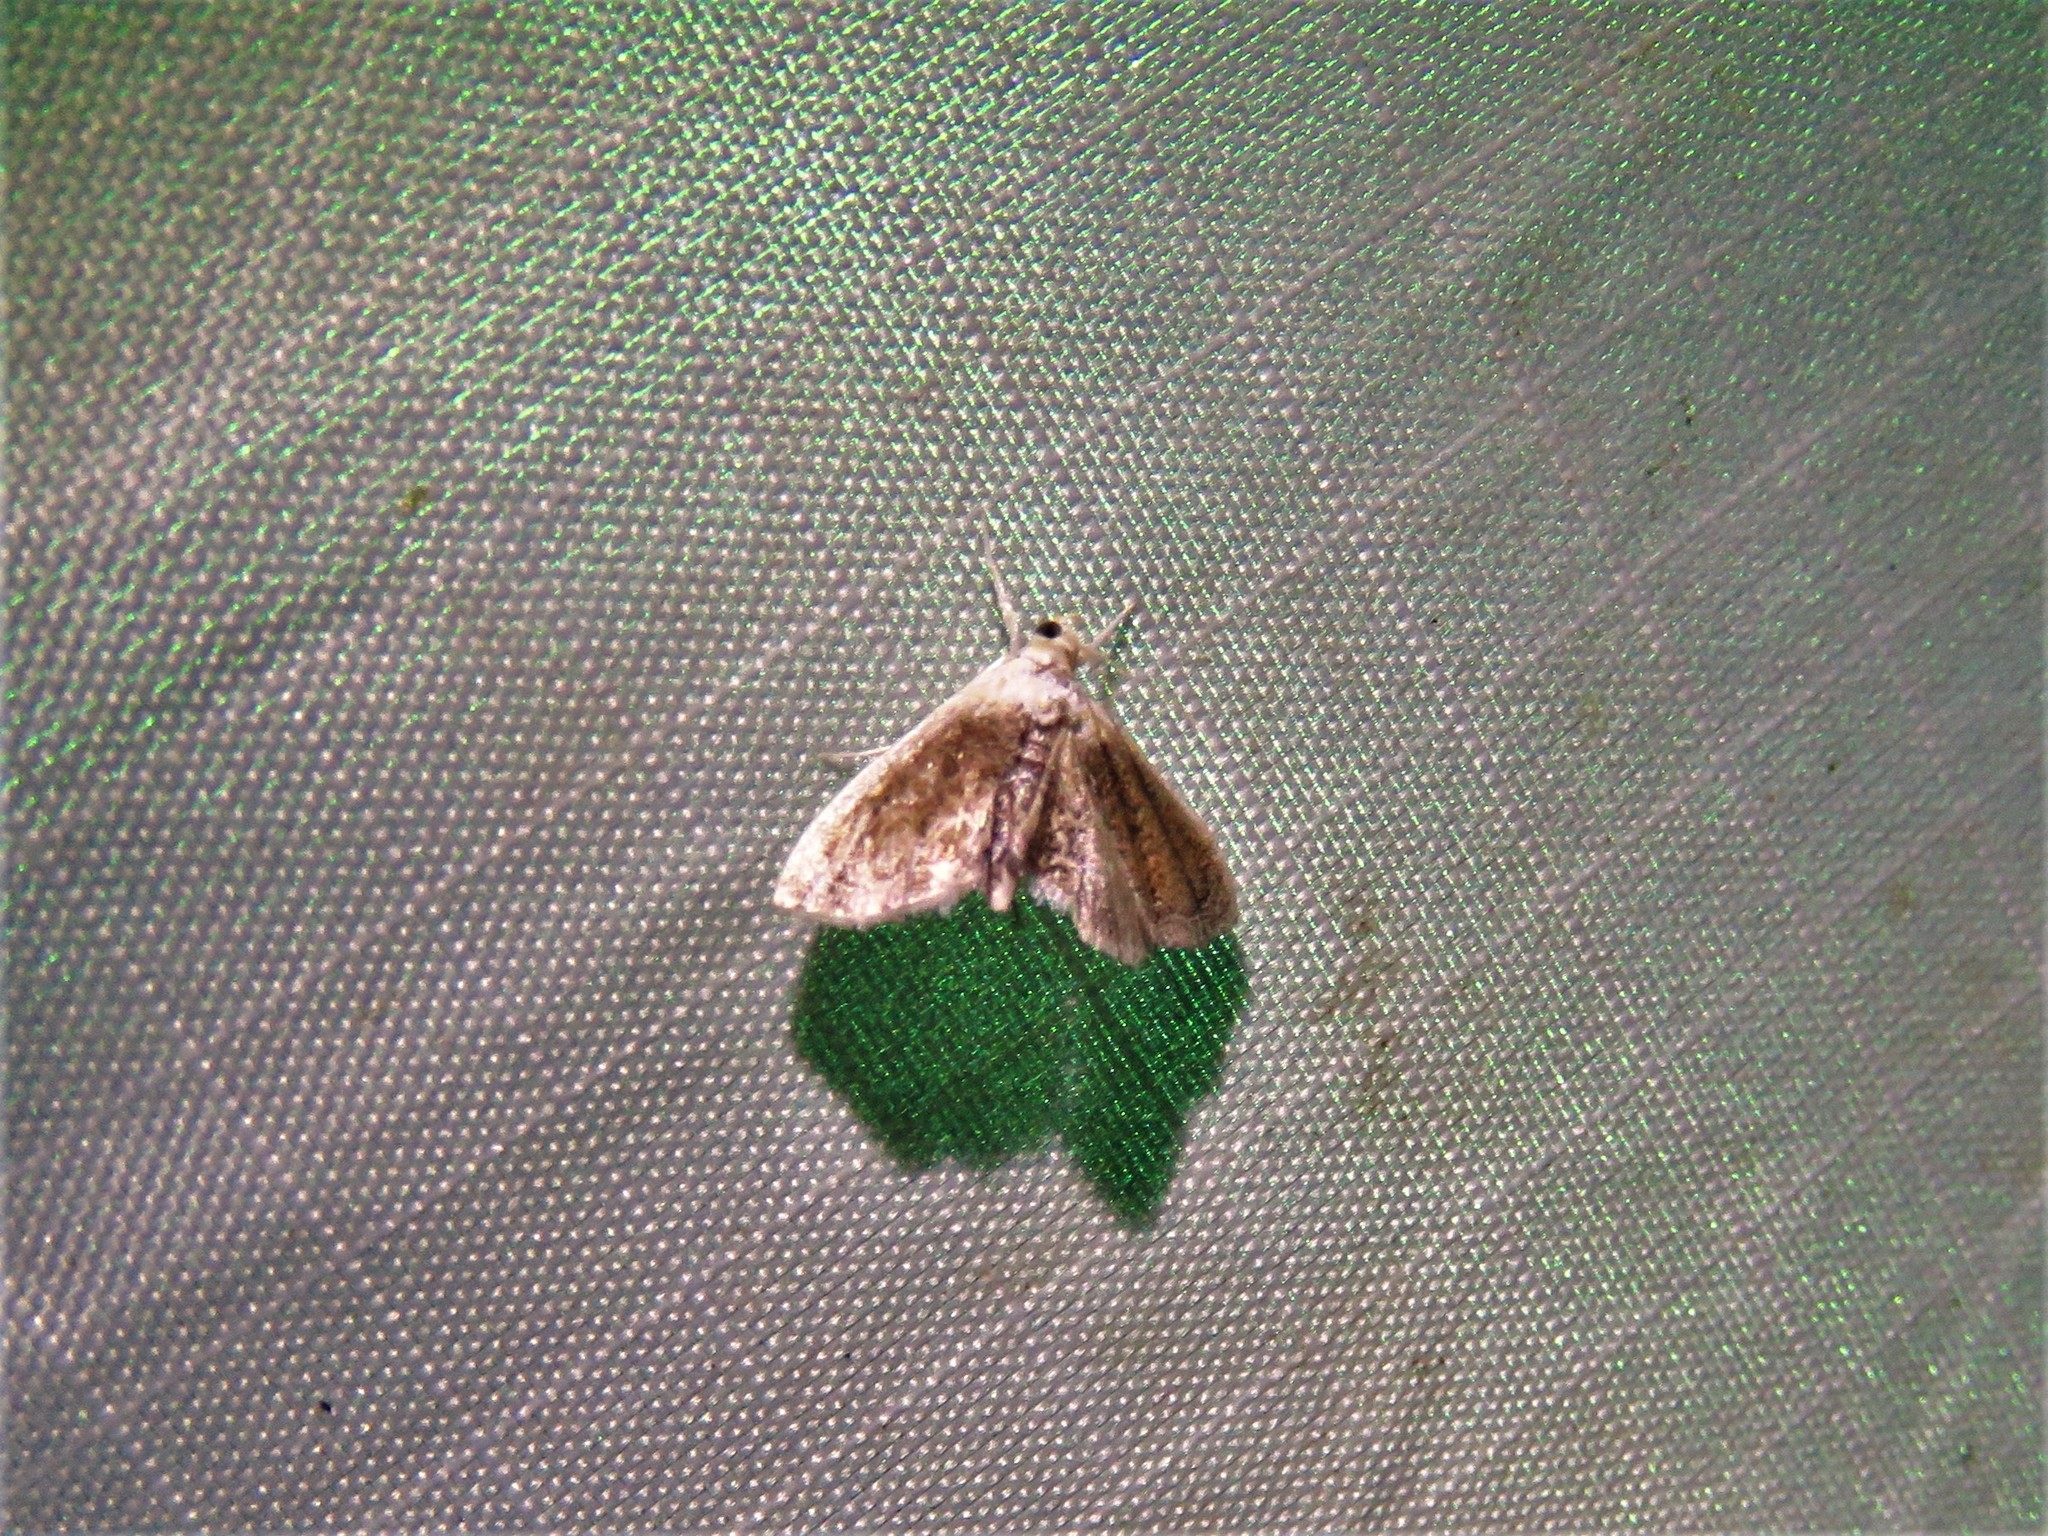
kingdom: Animalia
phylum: Arthropoda
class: Insecta
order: Lepidoptera
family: Crambidae
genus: Lipocosmodes
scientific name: Lipocosmodes fuliginosalis
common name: Sooty lipocosmodes moth
